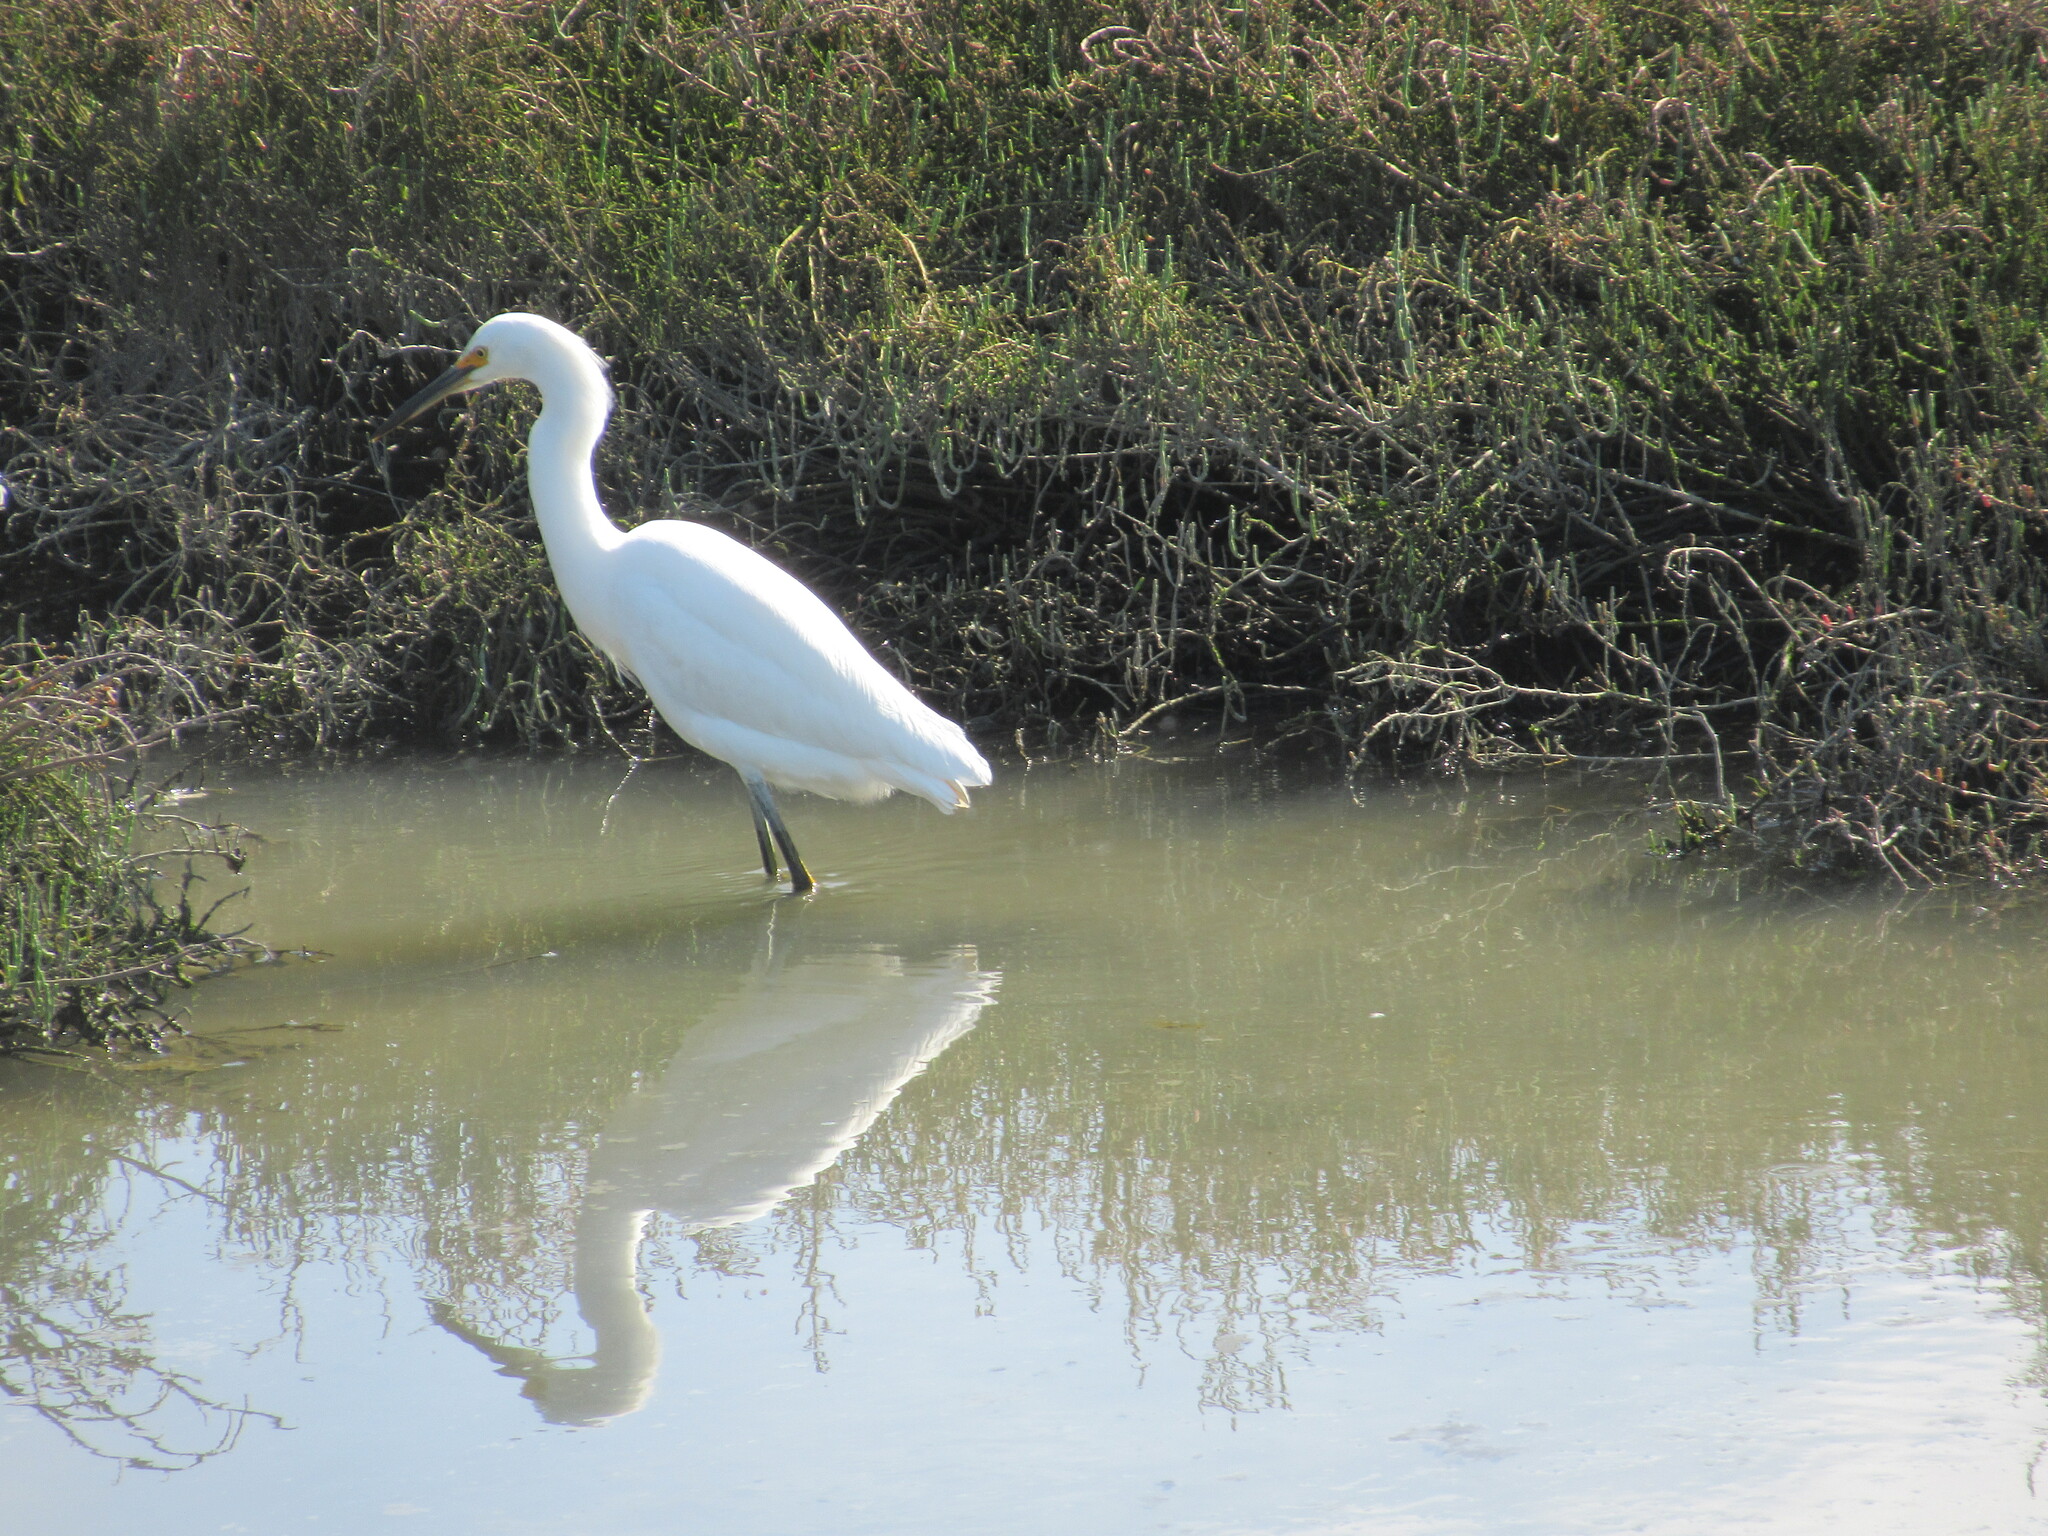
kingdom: Animalia
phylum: Chordata
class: Aves
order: Pelecaniformes
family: Ardeidae
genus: Egretta
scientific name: Egretta thula
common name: Snowy egret
